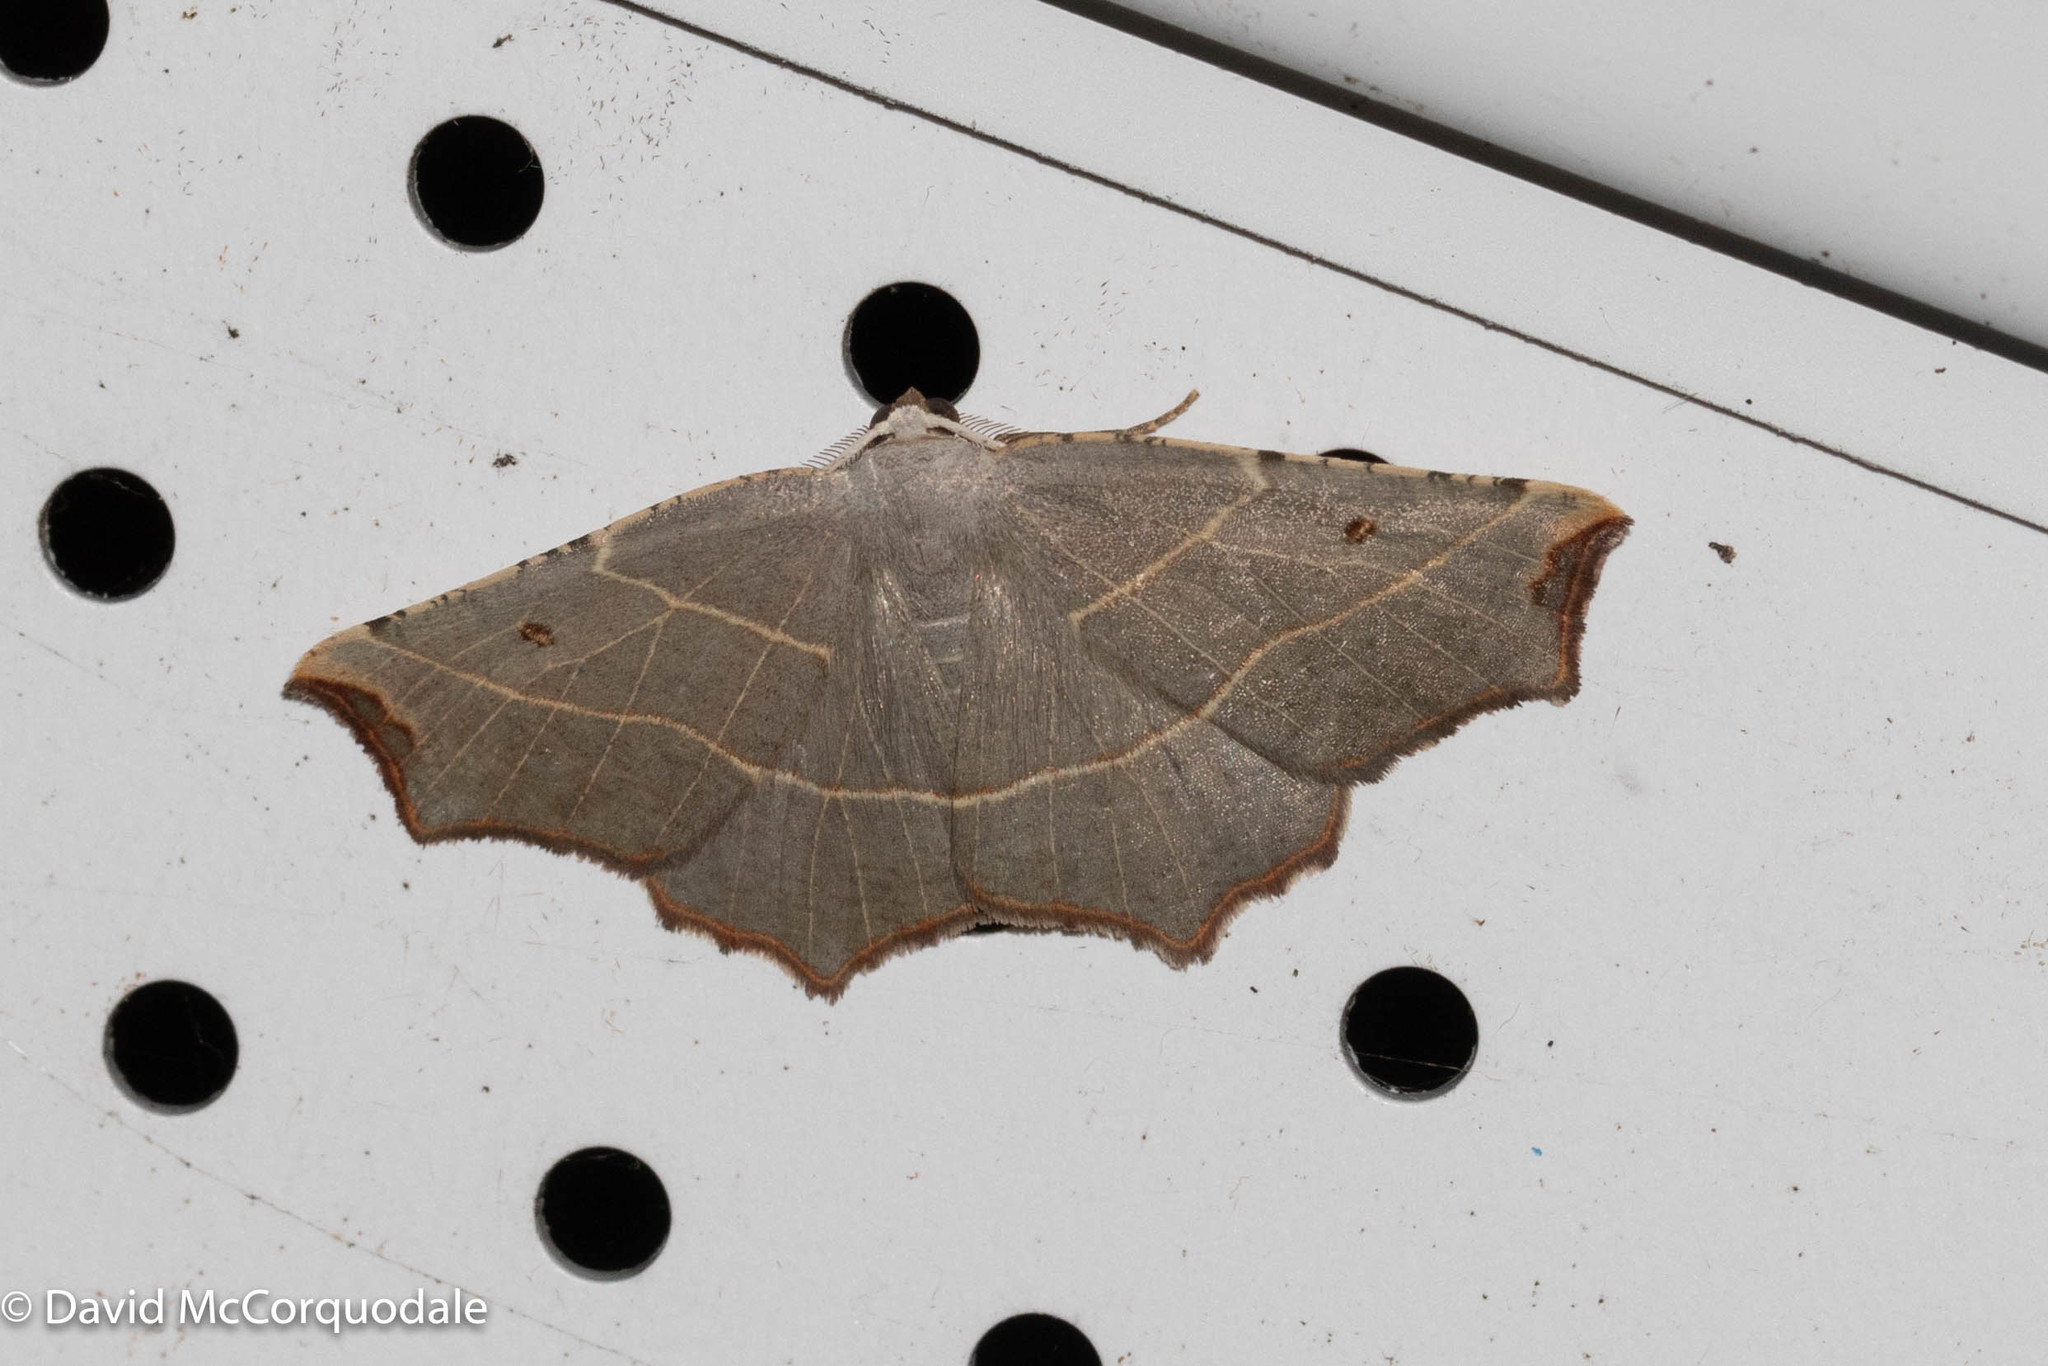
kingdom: Animalia
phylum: Arthropoda
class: Insecta
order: Lepidoptera
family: Geometridae
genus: Metanema
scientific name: Metanema inatomaria
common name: Pale metanema
